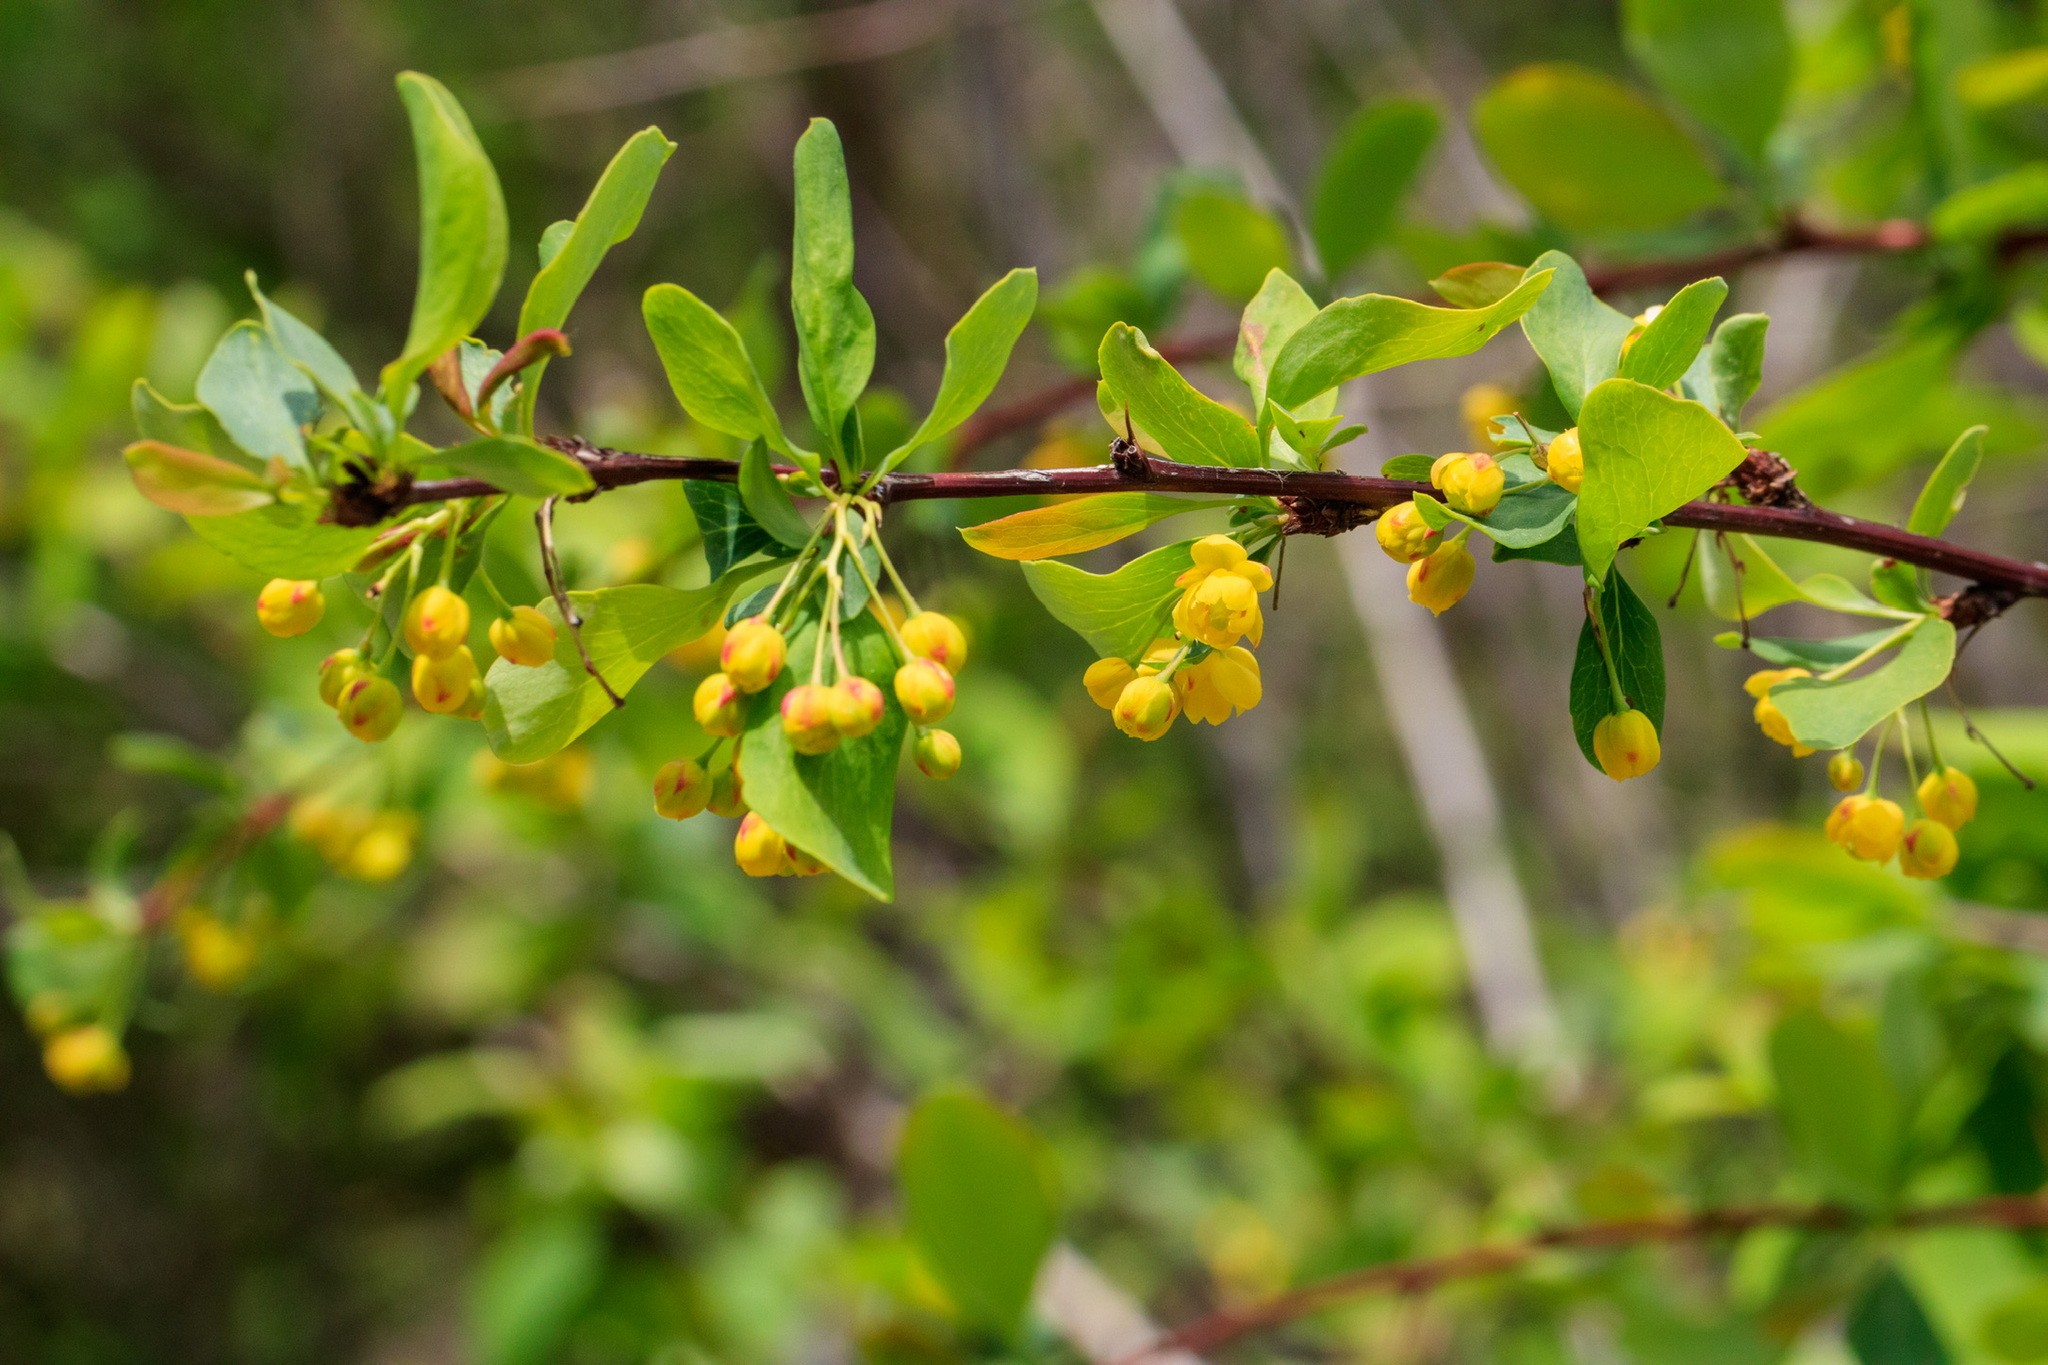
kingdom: Plantae
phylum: Tracheophyta
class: Magnoliopsida
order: Ranunculales
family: Berberidaceae
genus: Berberis
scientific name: Berberis heteropoda
